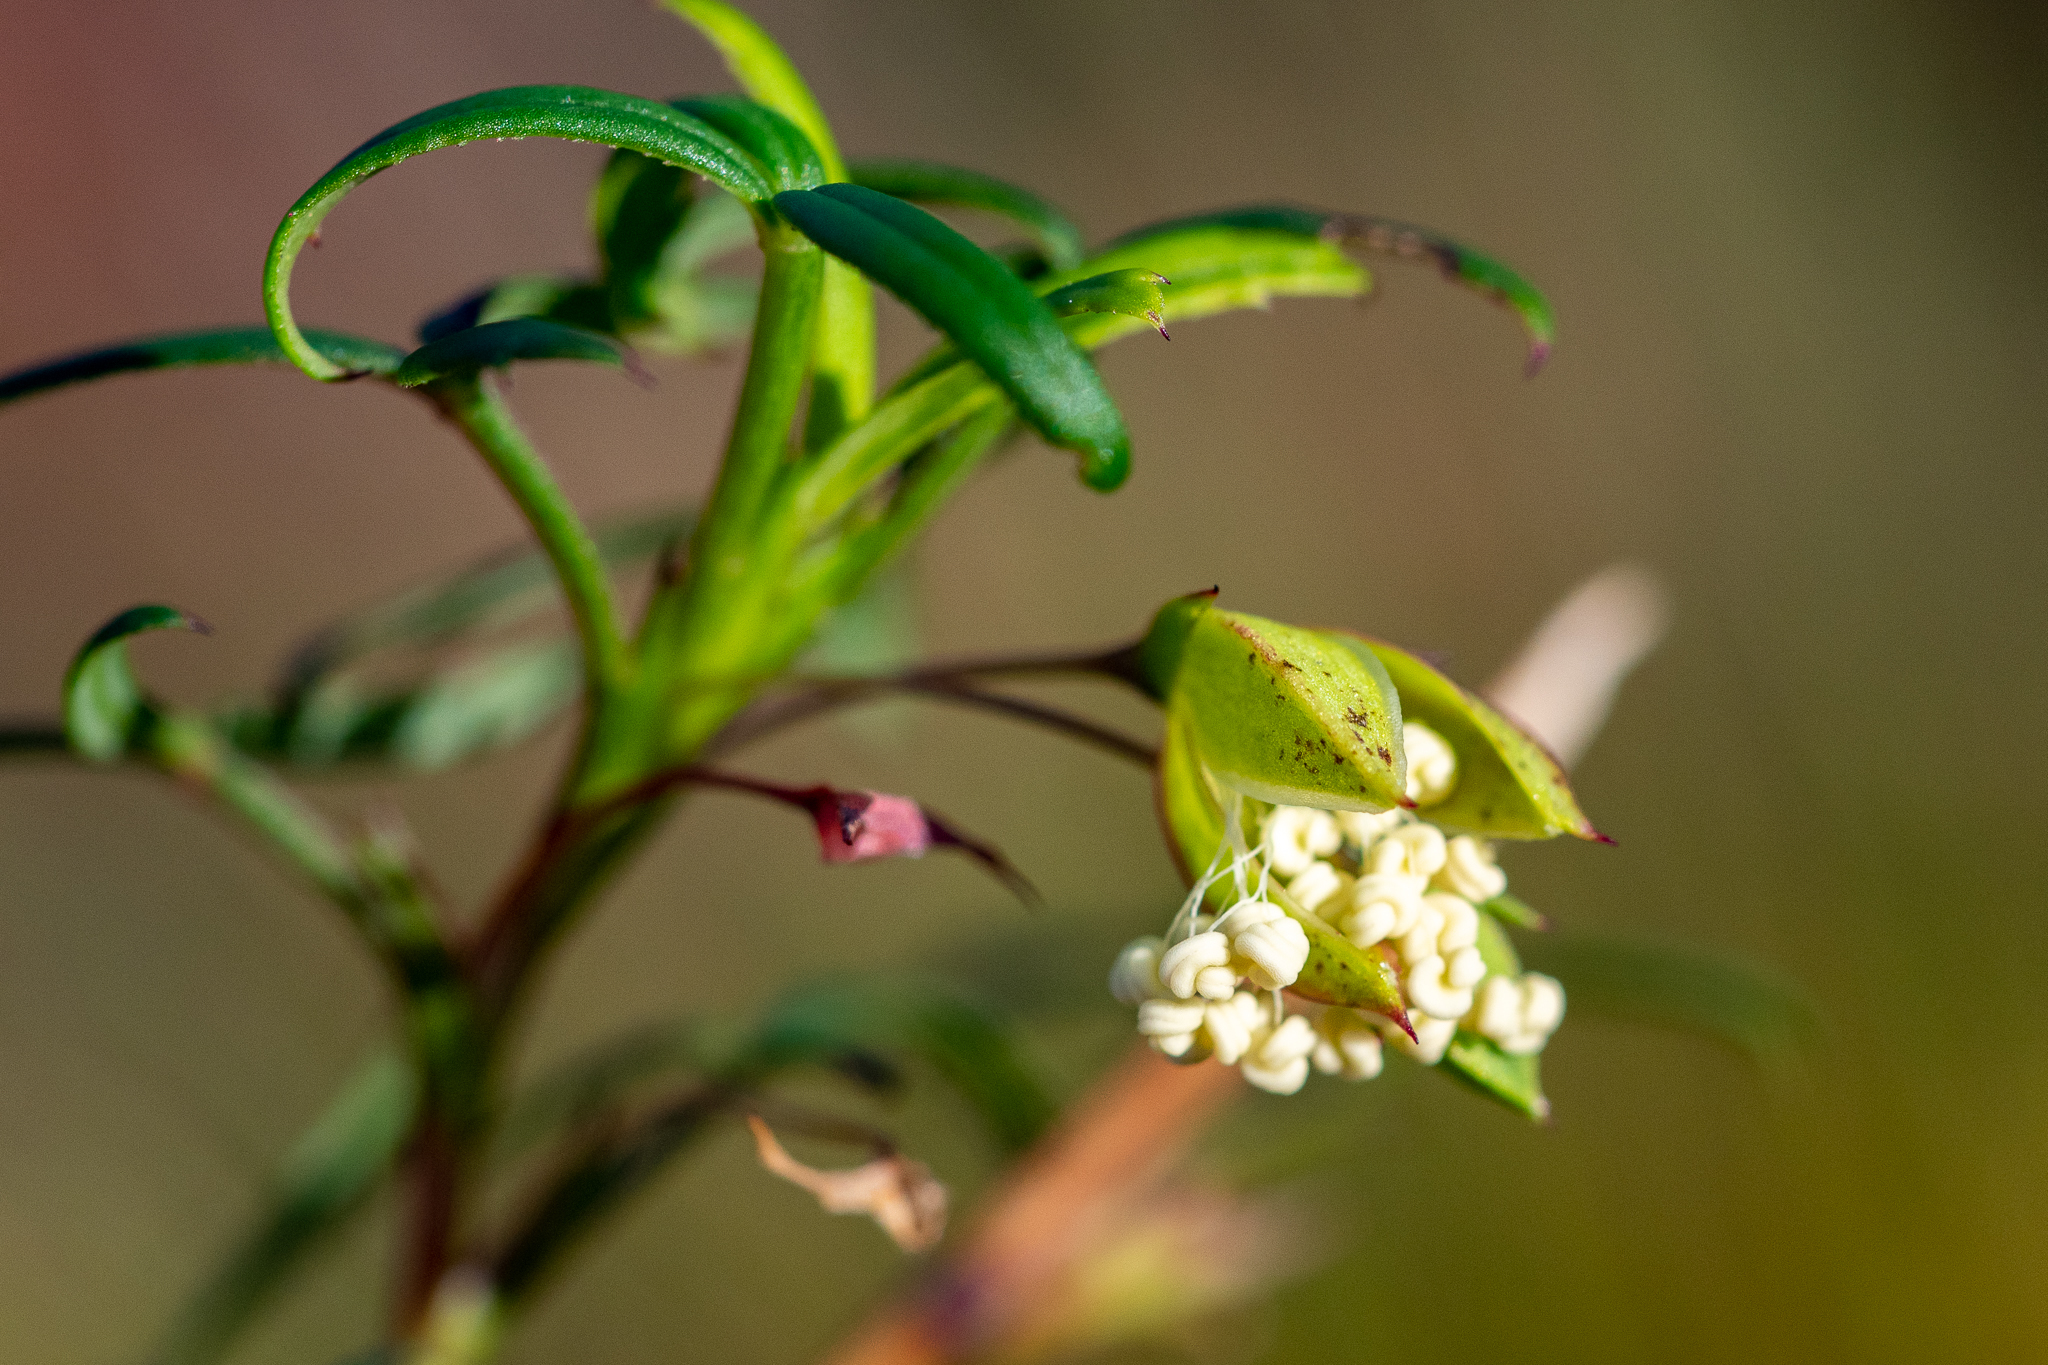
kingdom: Plantae
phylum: Tracheophyta
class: Magnoliopsida
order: Rosales
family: Rosaceae
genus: Cliffortia
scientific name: Cliffortia pedunculata
